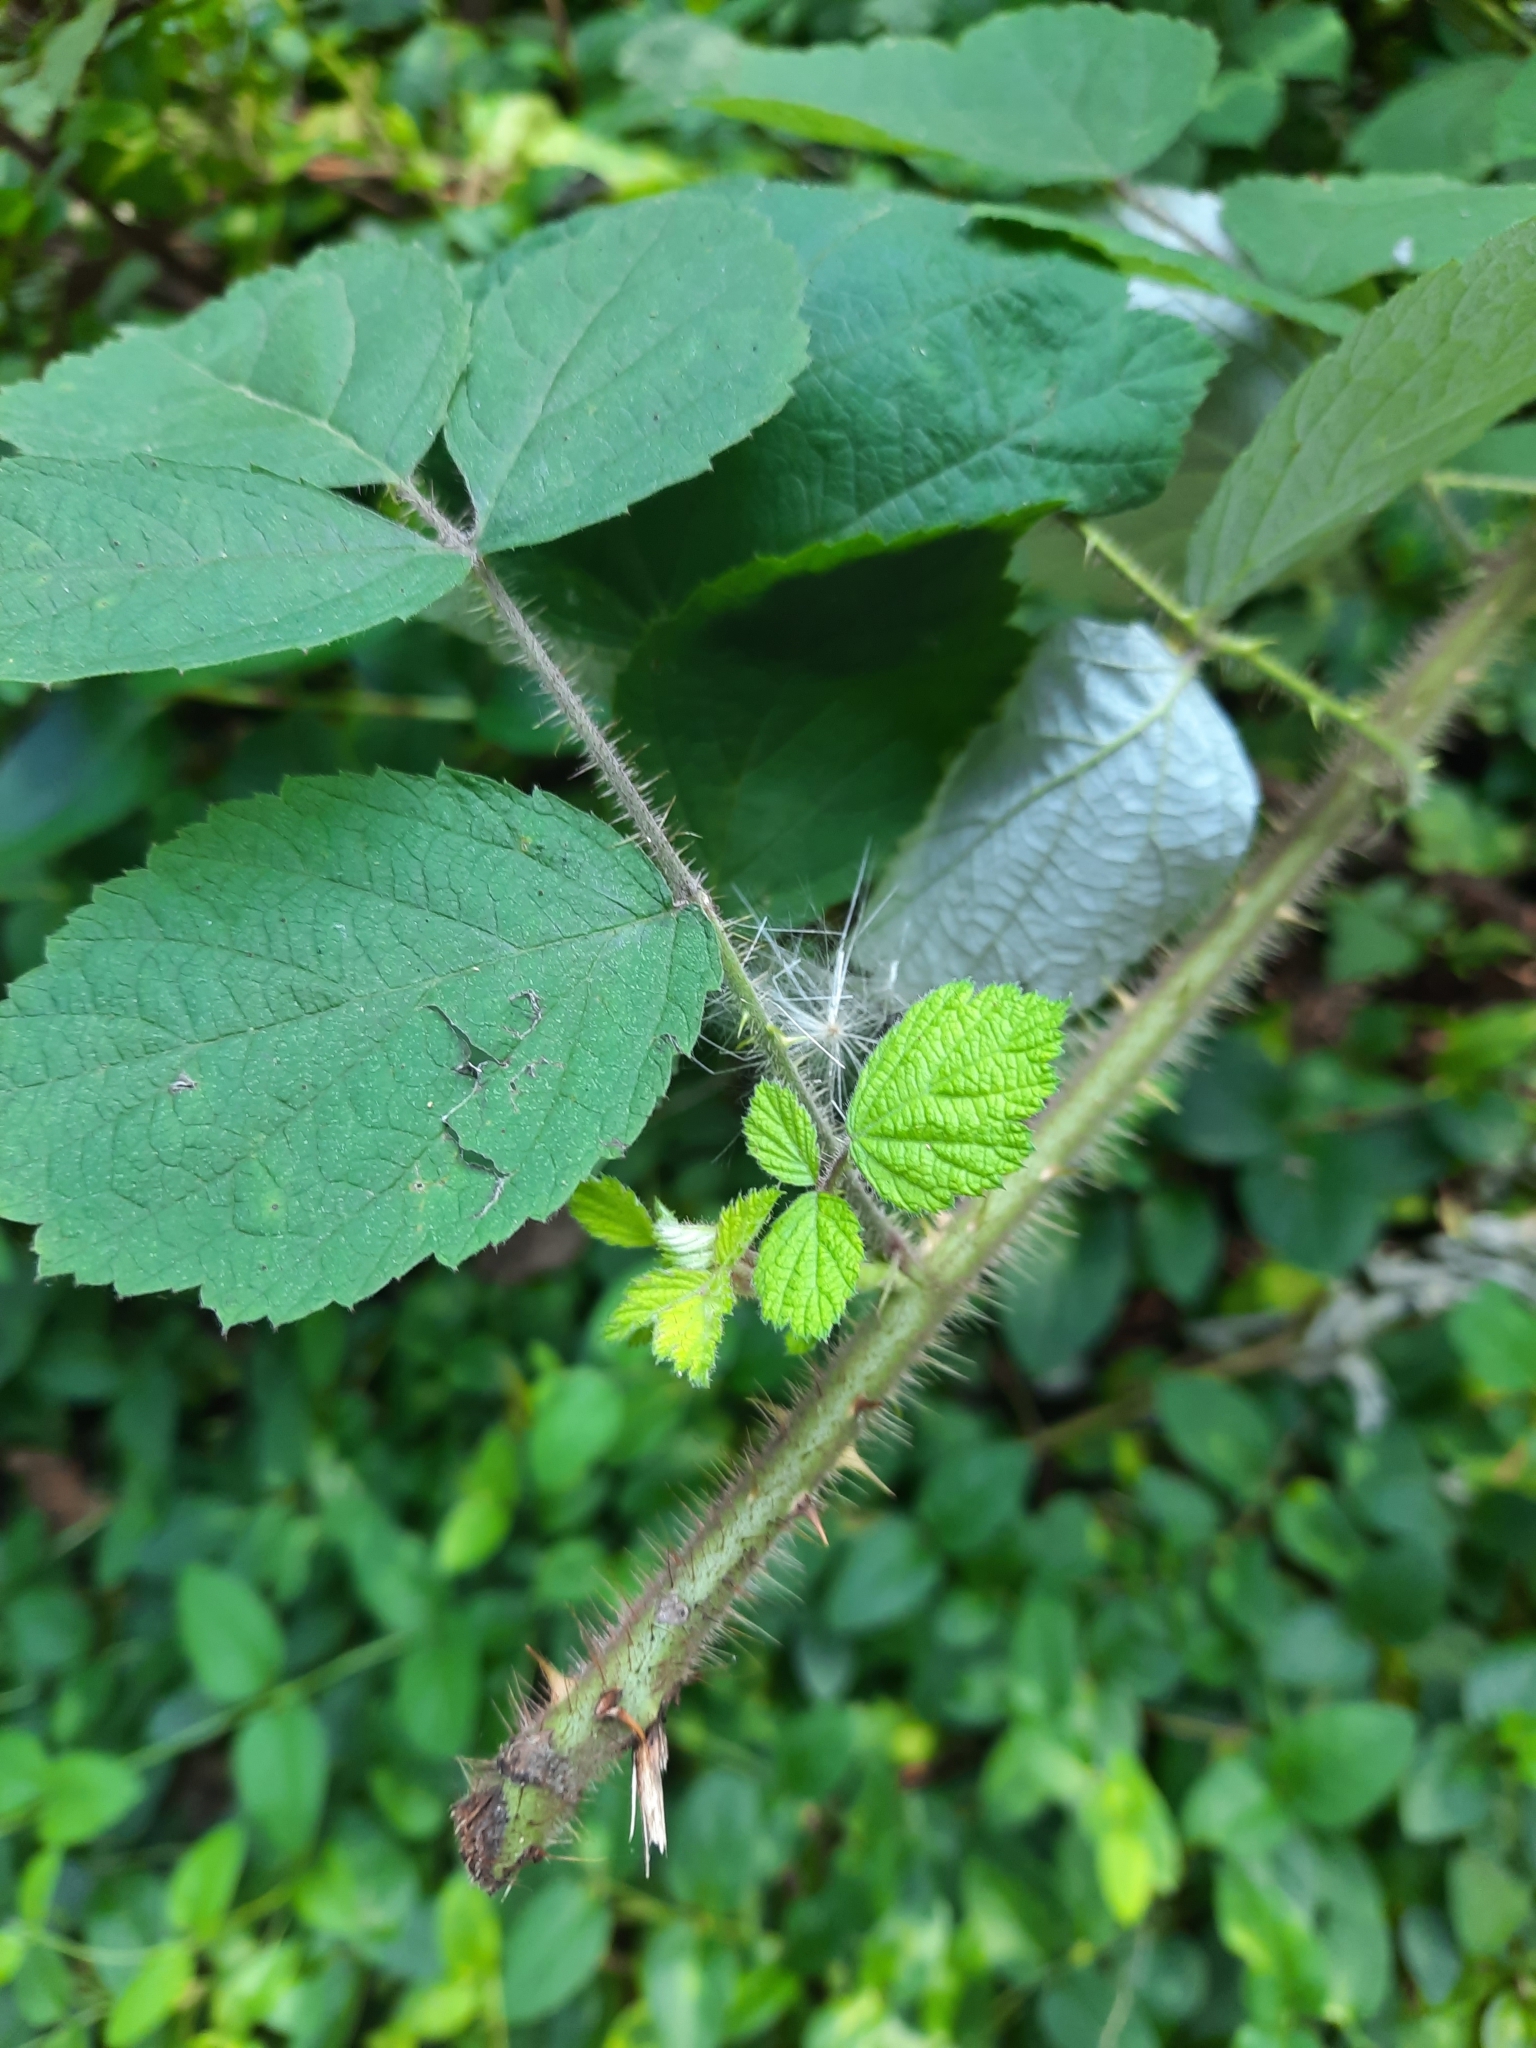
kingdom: Plantae
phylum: Tracheophyta
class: Magnoliopsida
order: Rosales
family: Rosaceae
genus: Rubus
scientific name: Rubus phoenicolasius
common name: Japanese wineberry
